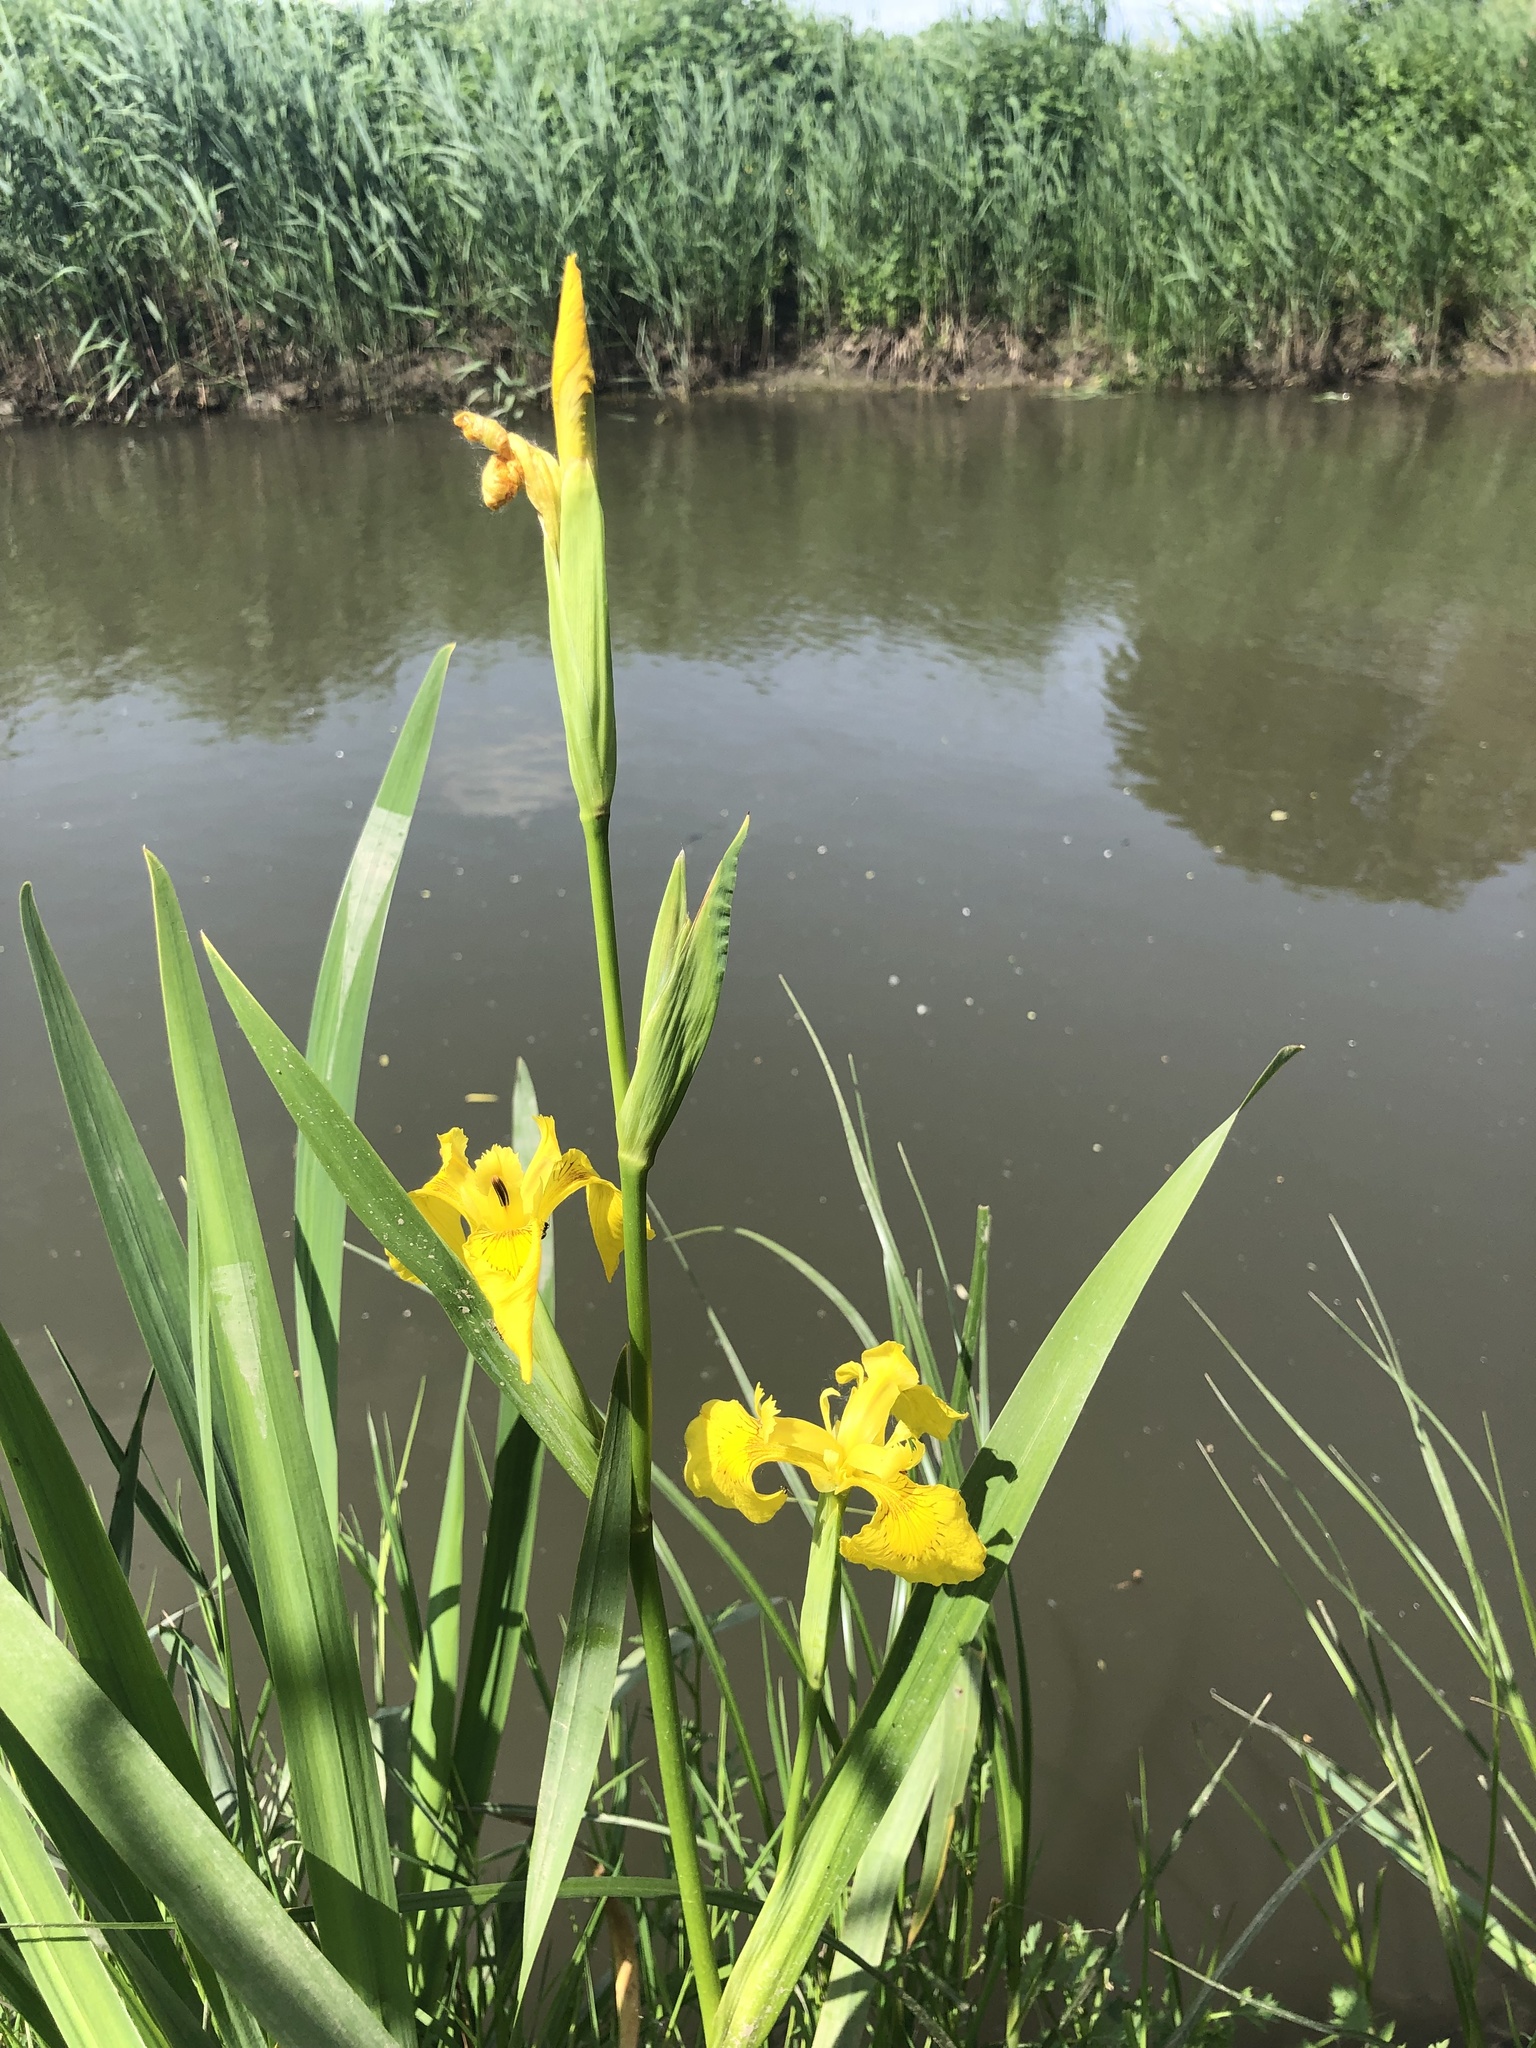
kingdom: Plantae
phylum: Tracheophyta
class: Liliopsida
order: Asparagales
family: Iridaceae
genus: Iris
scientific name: Iris pseudacorus
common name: Yellow flag
